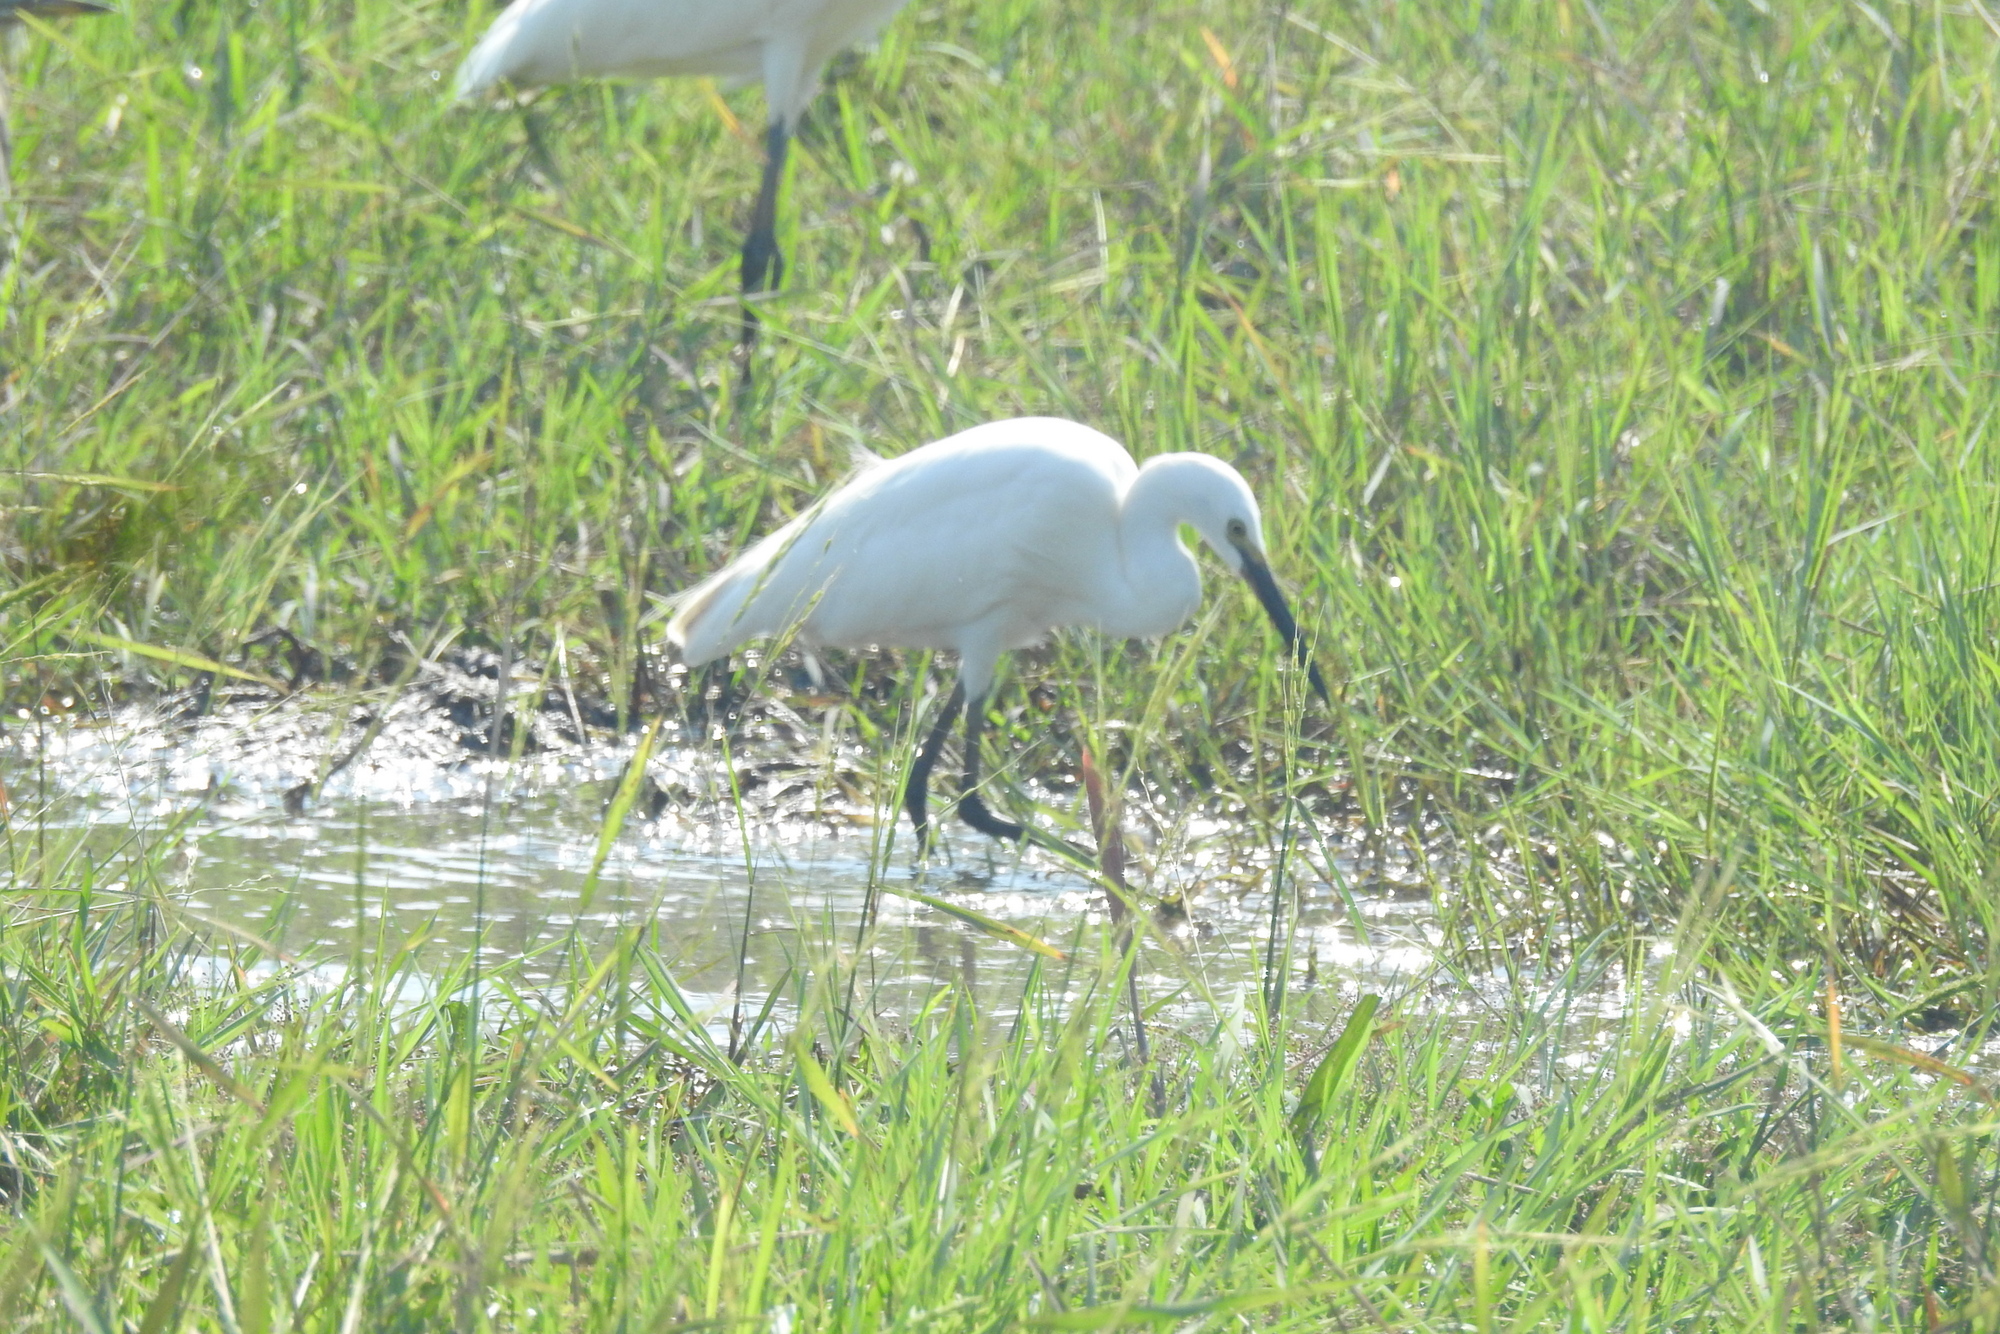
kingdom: Animalia
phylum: Chordata
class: Aves
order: Pelecaniformes
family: Ardeidae
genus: Egretta
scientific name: Egretta garzetta
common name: Little egret
